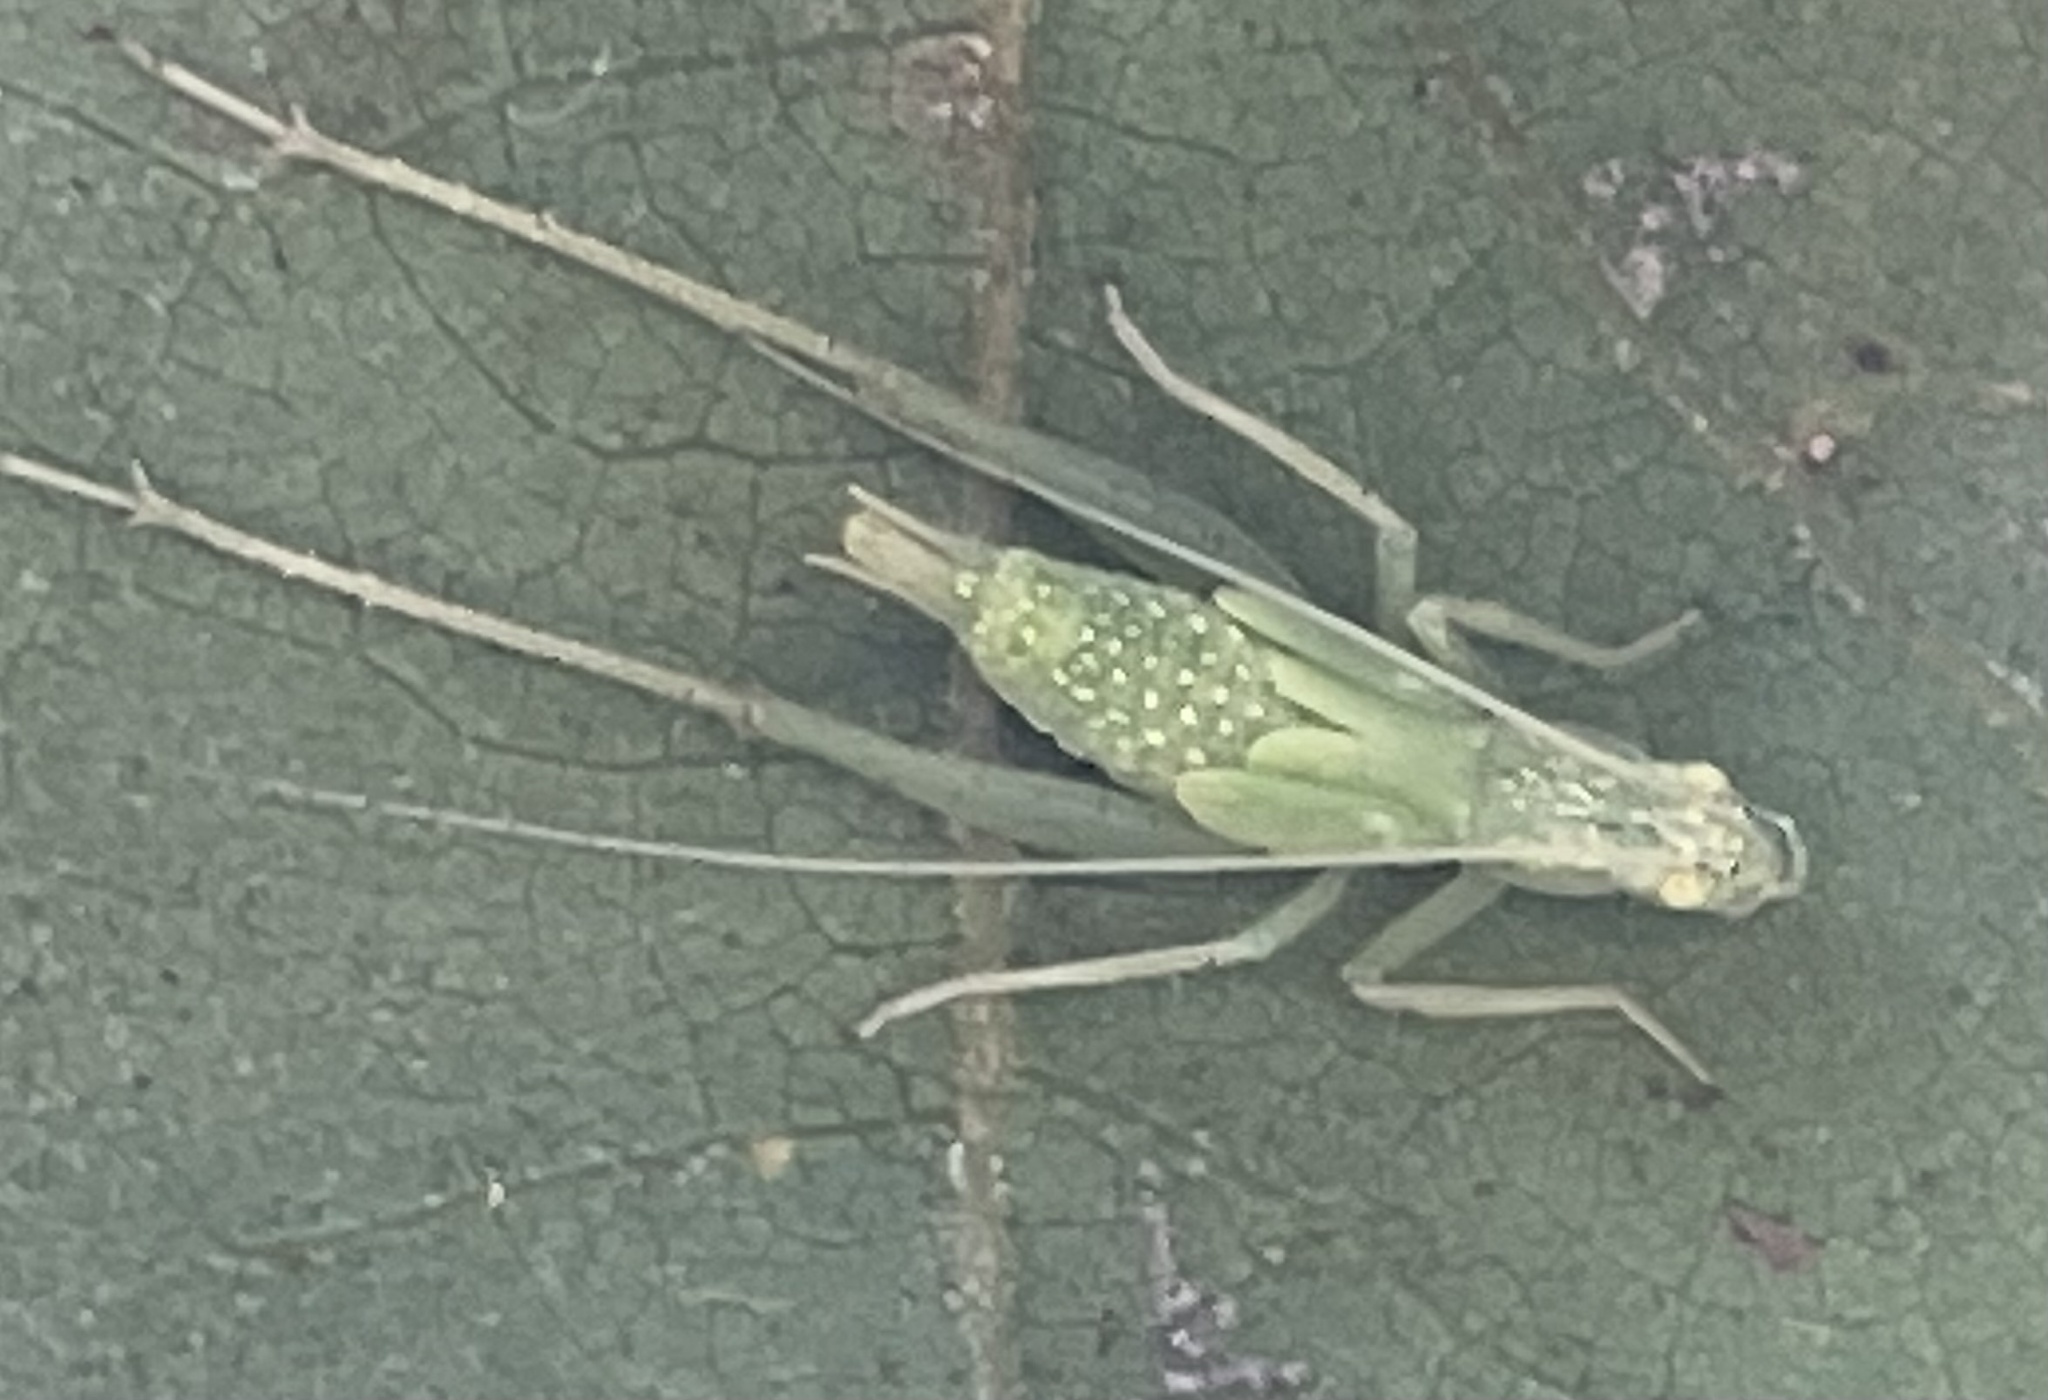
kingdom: Animalia
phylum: Arthropoda
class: Insecta
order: Orthoptera
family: Gryllidae
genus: Oecanthus
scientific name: Oecanthus fultoni
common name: Snowy tree cricket
